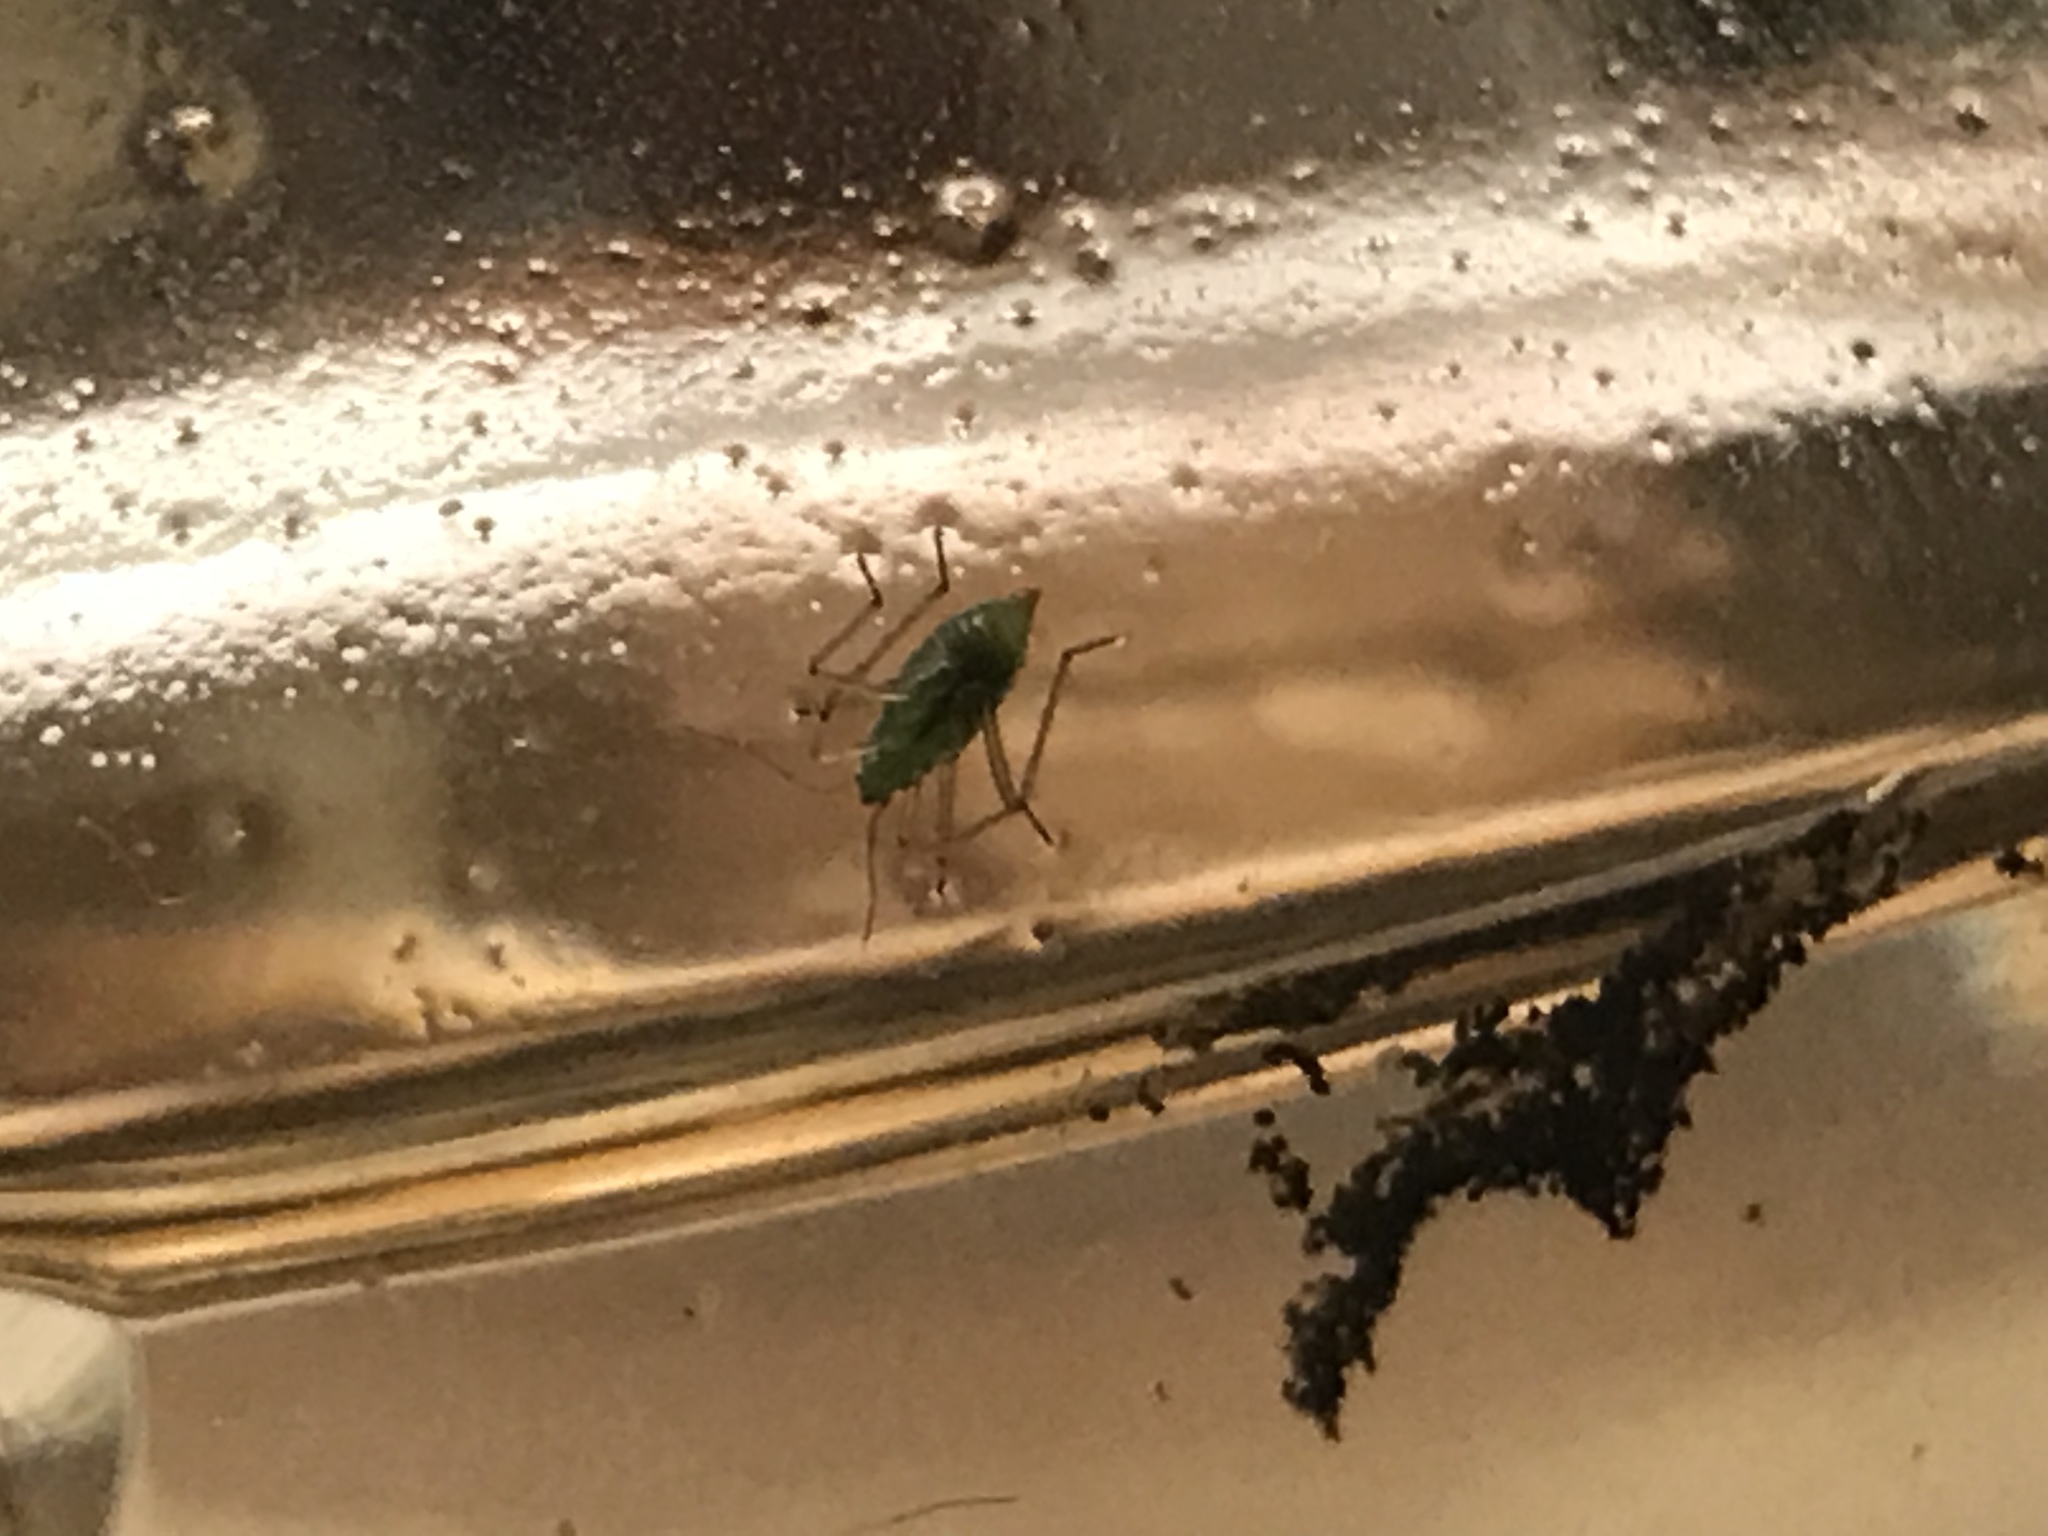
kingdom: Animalia
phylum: Arthropoda
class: Insecta
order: Hemiptera
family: Mesoveliidae
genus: Mesovelia
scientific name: Mesovelia
